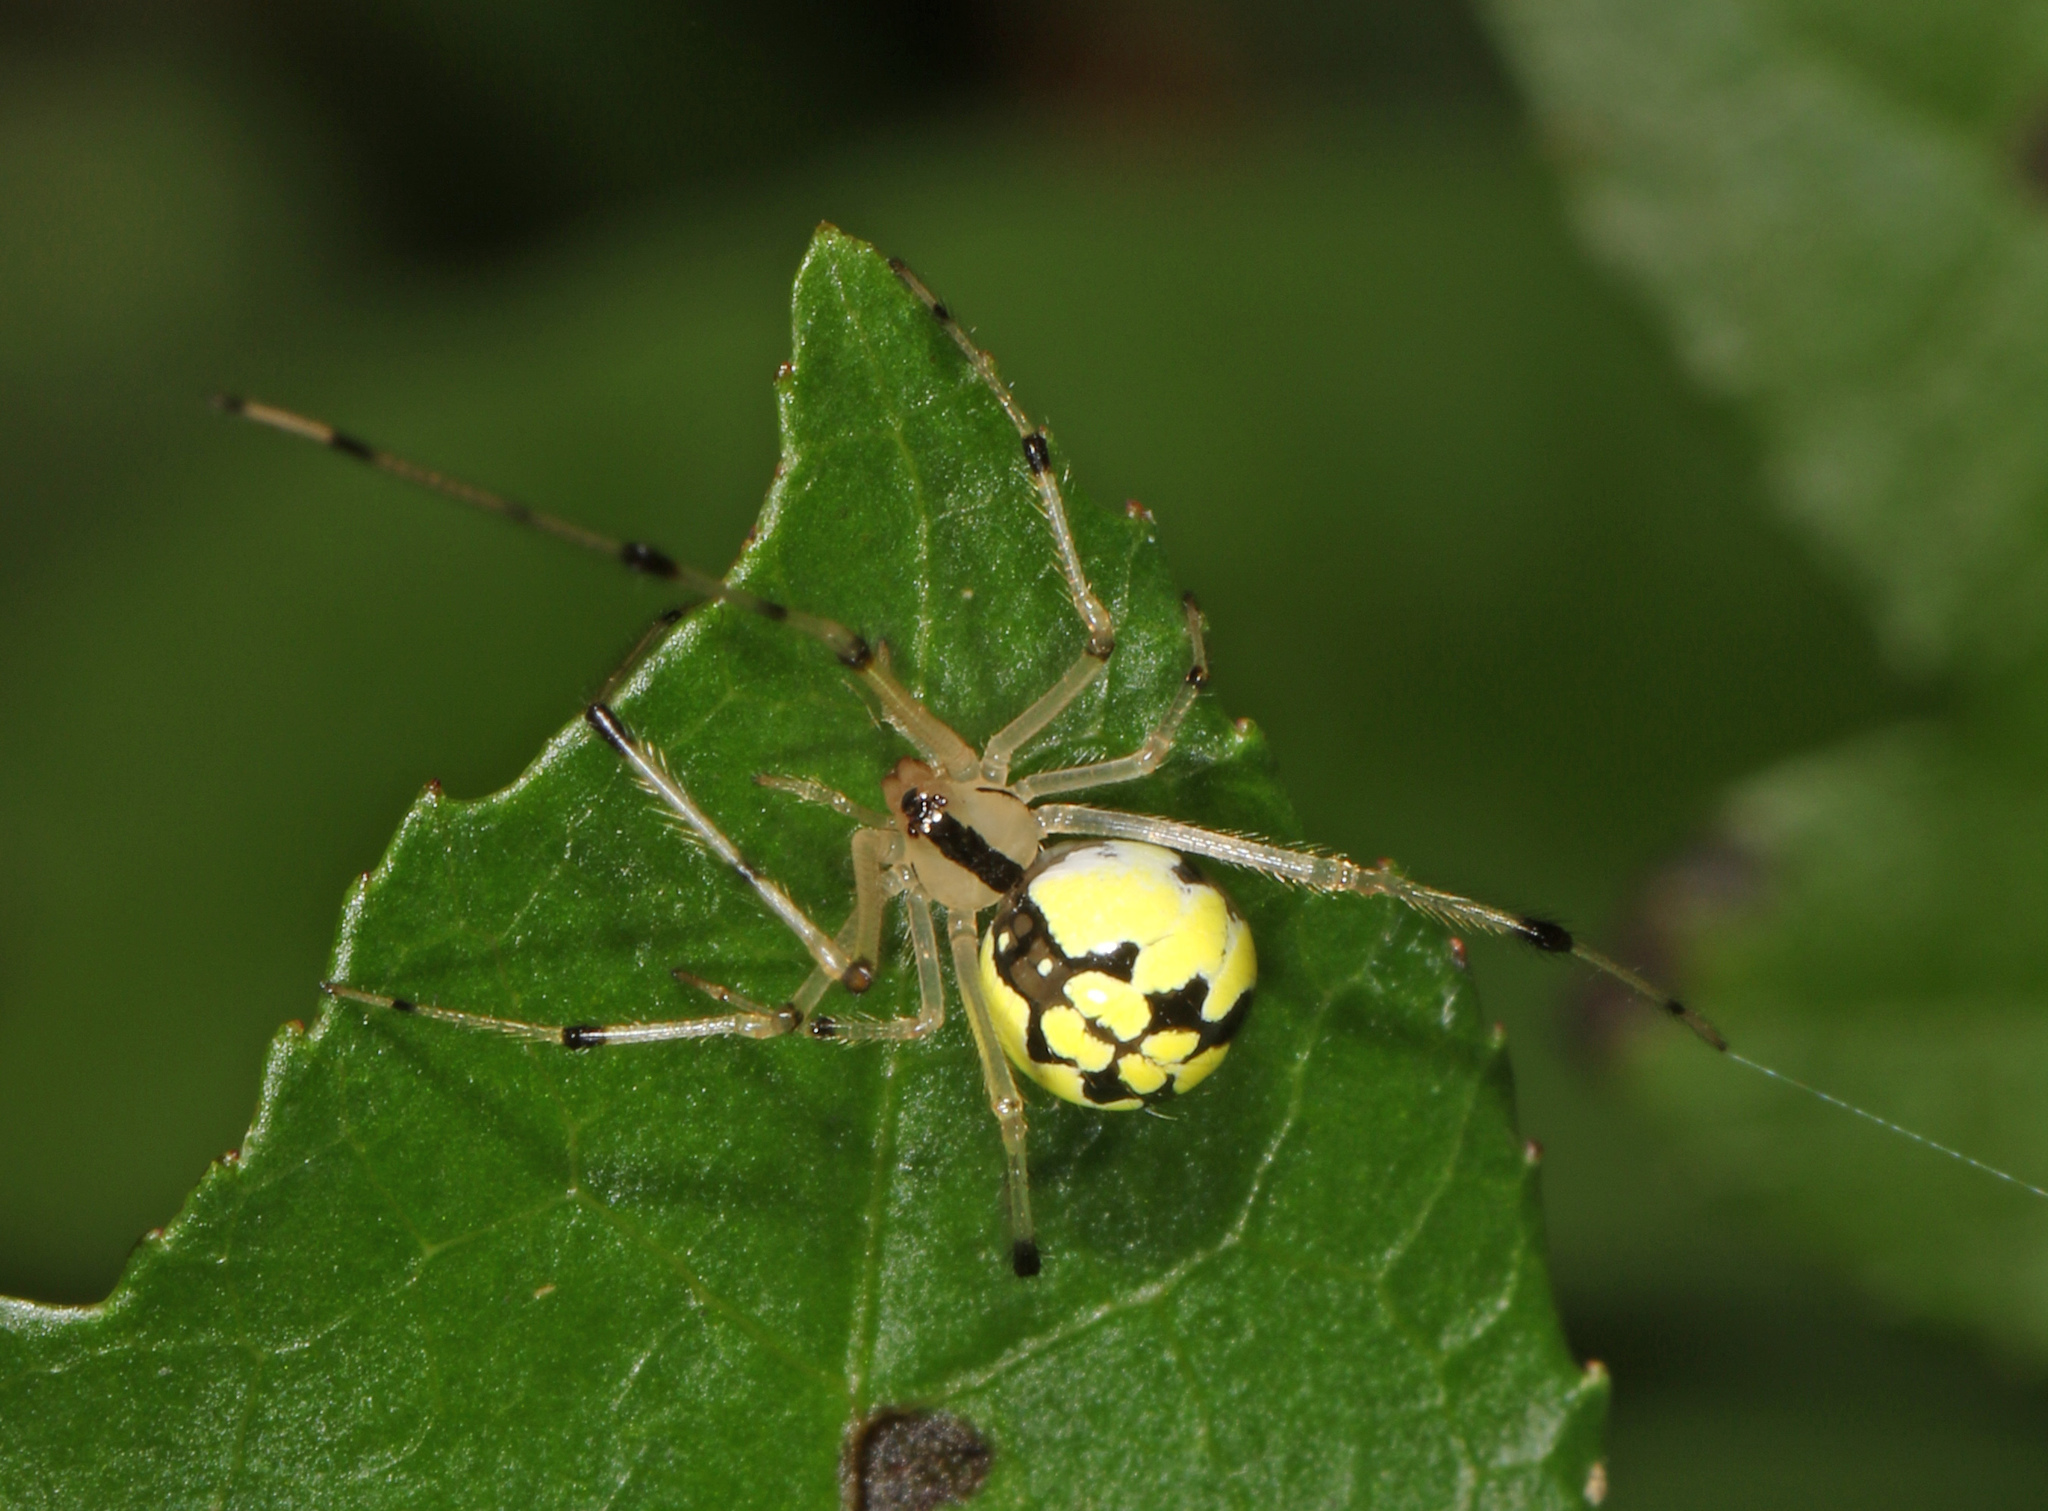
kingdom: Animalia
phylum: Arthropoda
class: Arachnida
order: Araneae
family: Theridiidae
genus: Phylloneta
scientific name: Phylloneta pictipes
